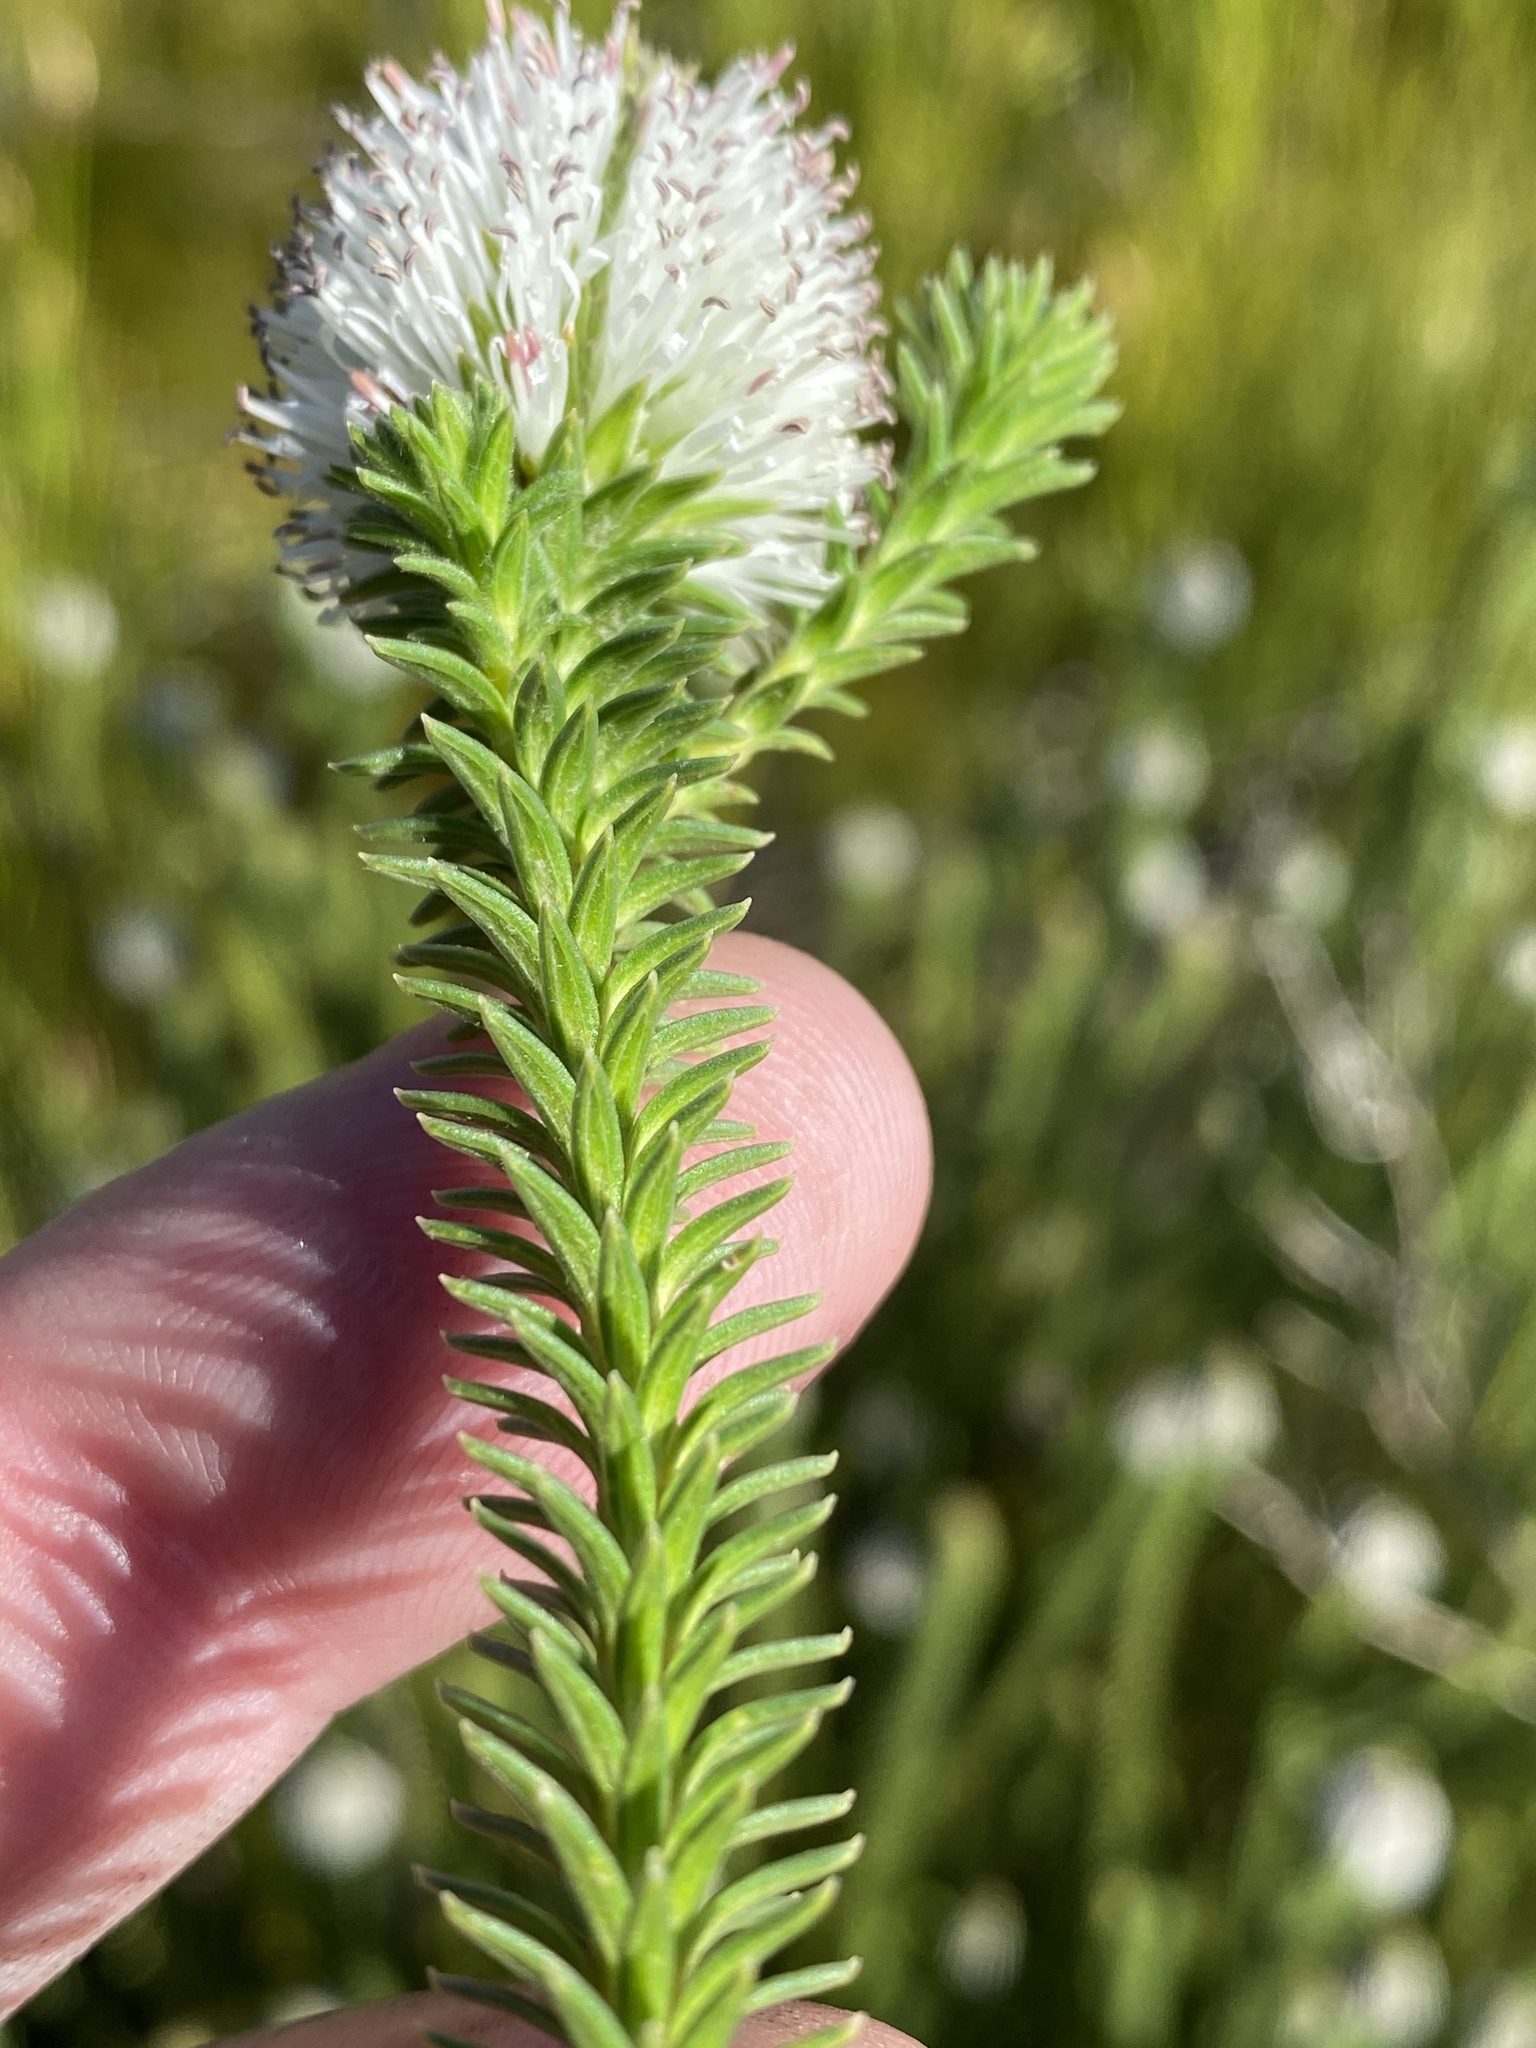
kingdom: Plantae
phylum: Tracheophyta
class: Magnoliopsida
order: Lamiales
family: Stilbaceae
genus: Stilbe
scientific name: Stilbe albiflora
